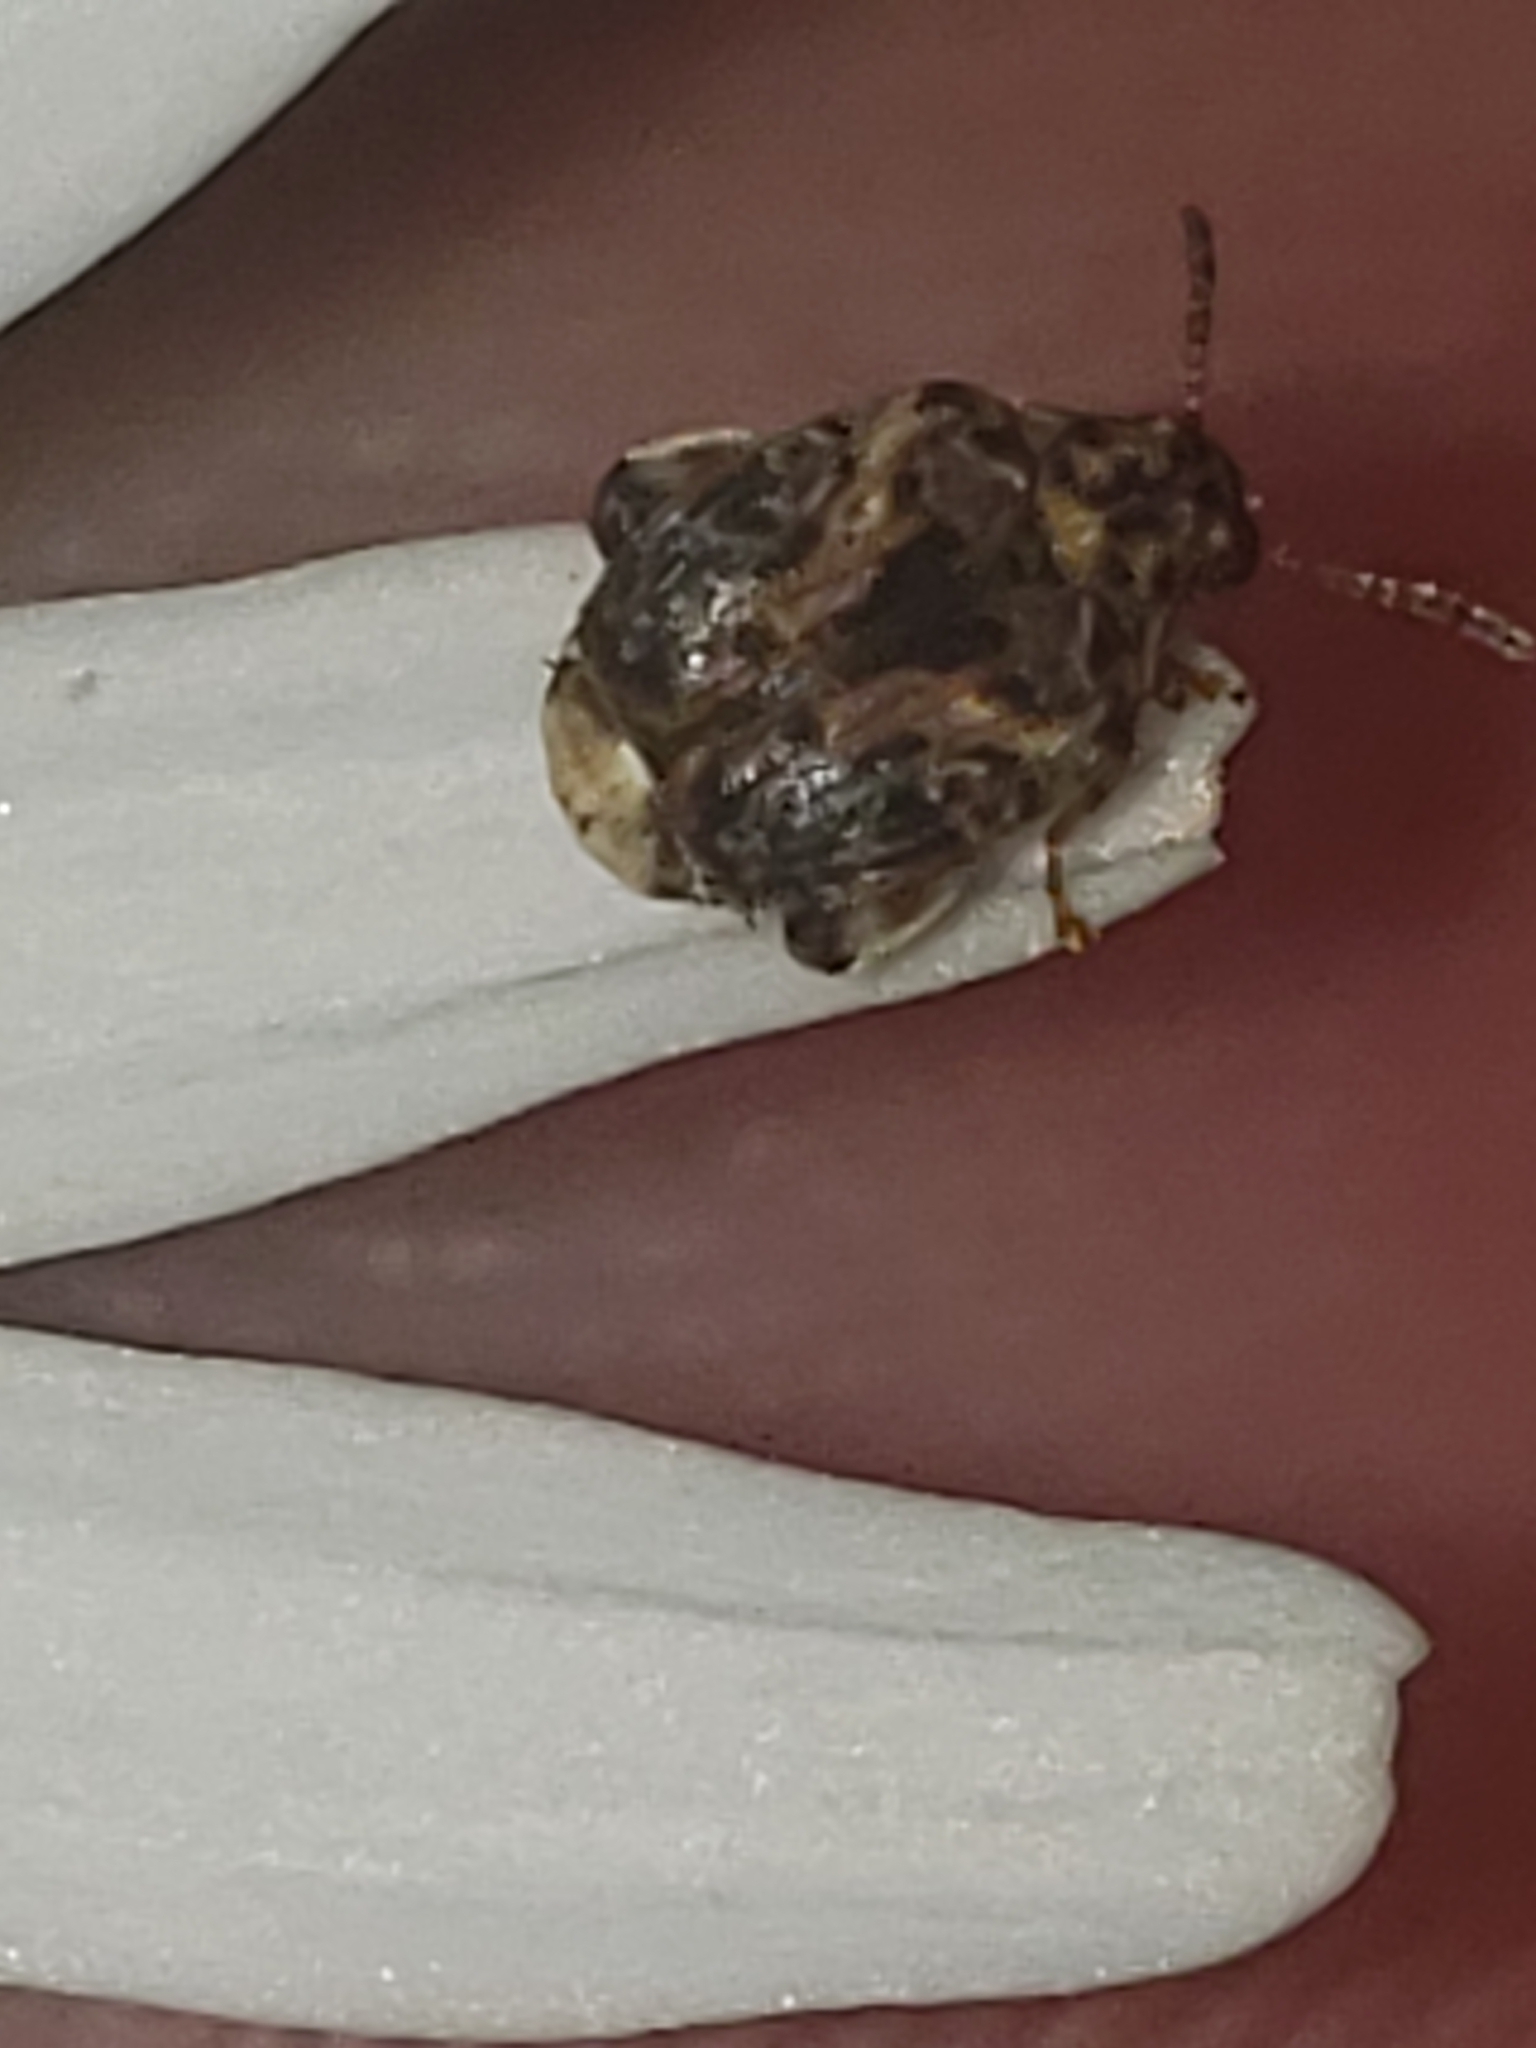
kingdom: Animalia
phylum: Arthropoda
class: Insecta
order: Coleoptera
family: Chrysomelidae
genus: Gibbobruchus
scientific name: Gibbobruchus mimus
